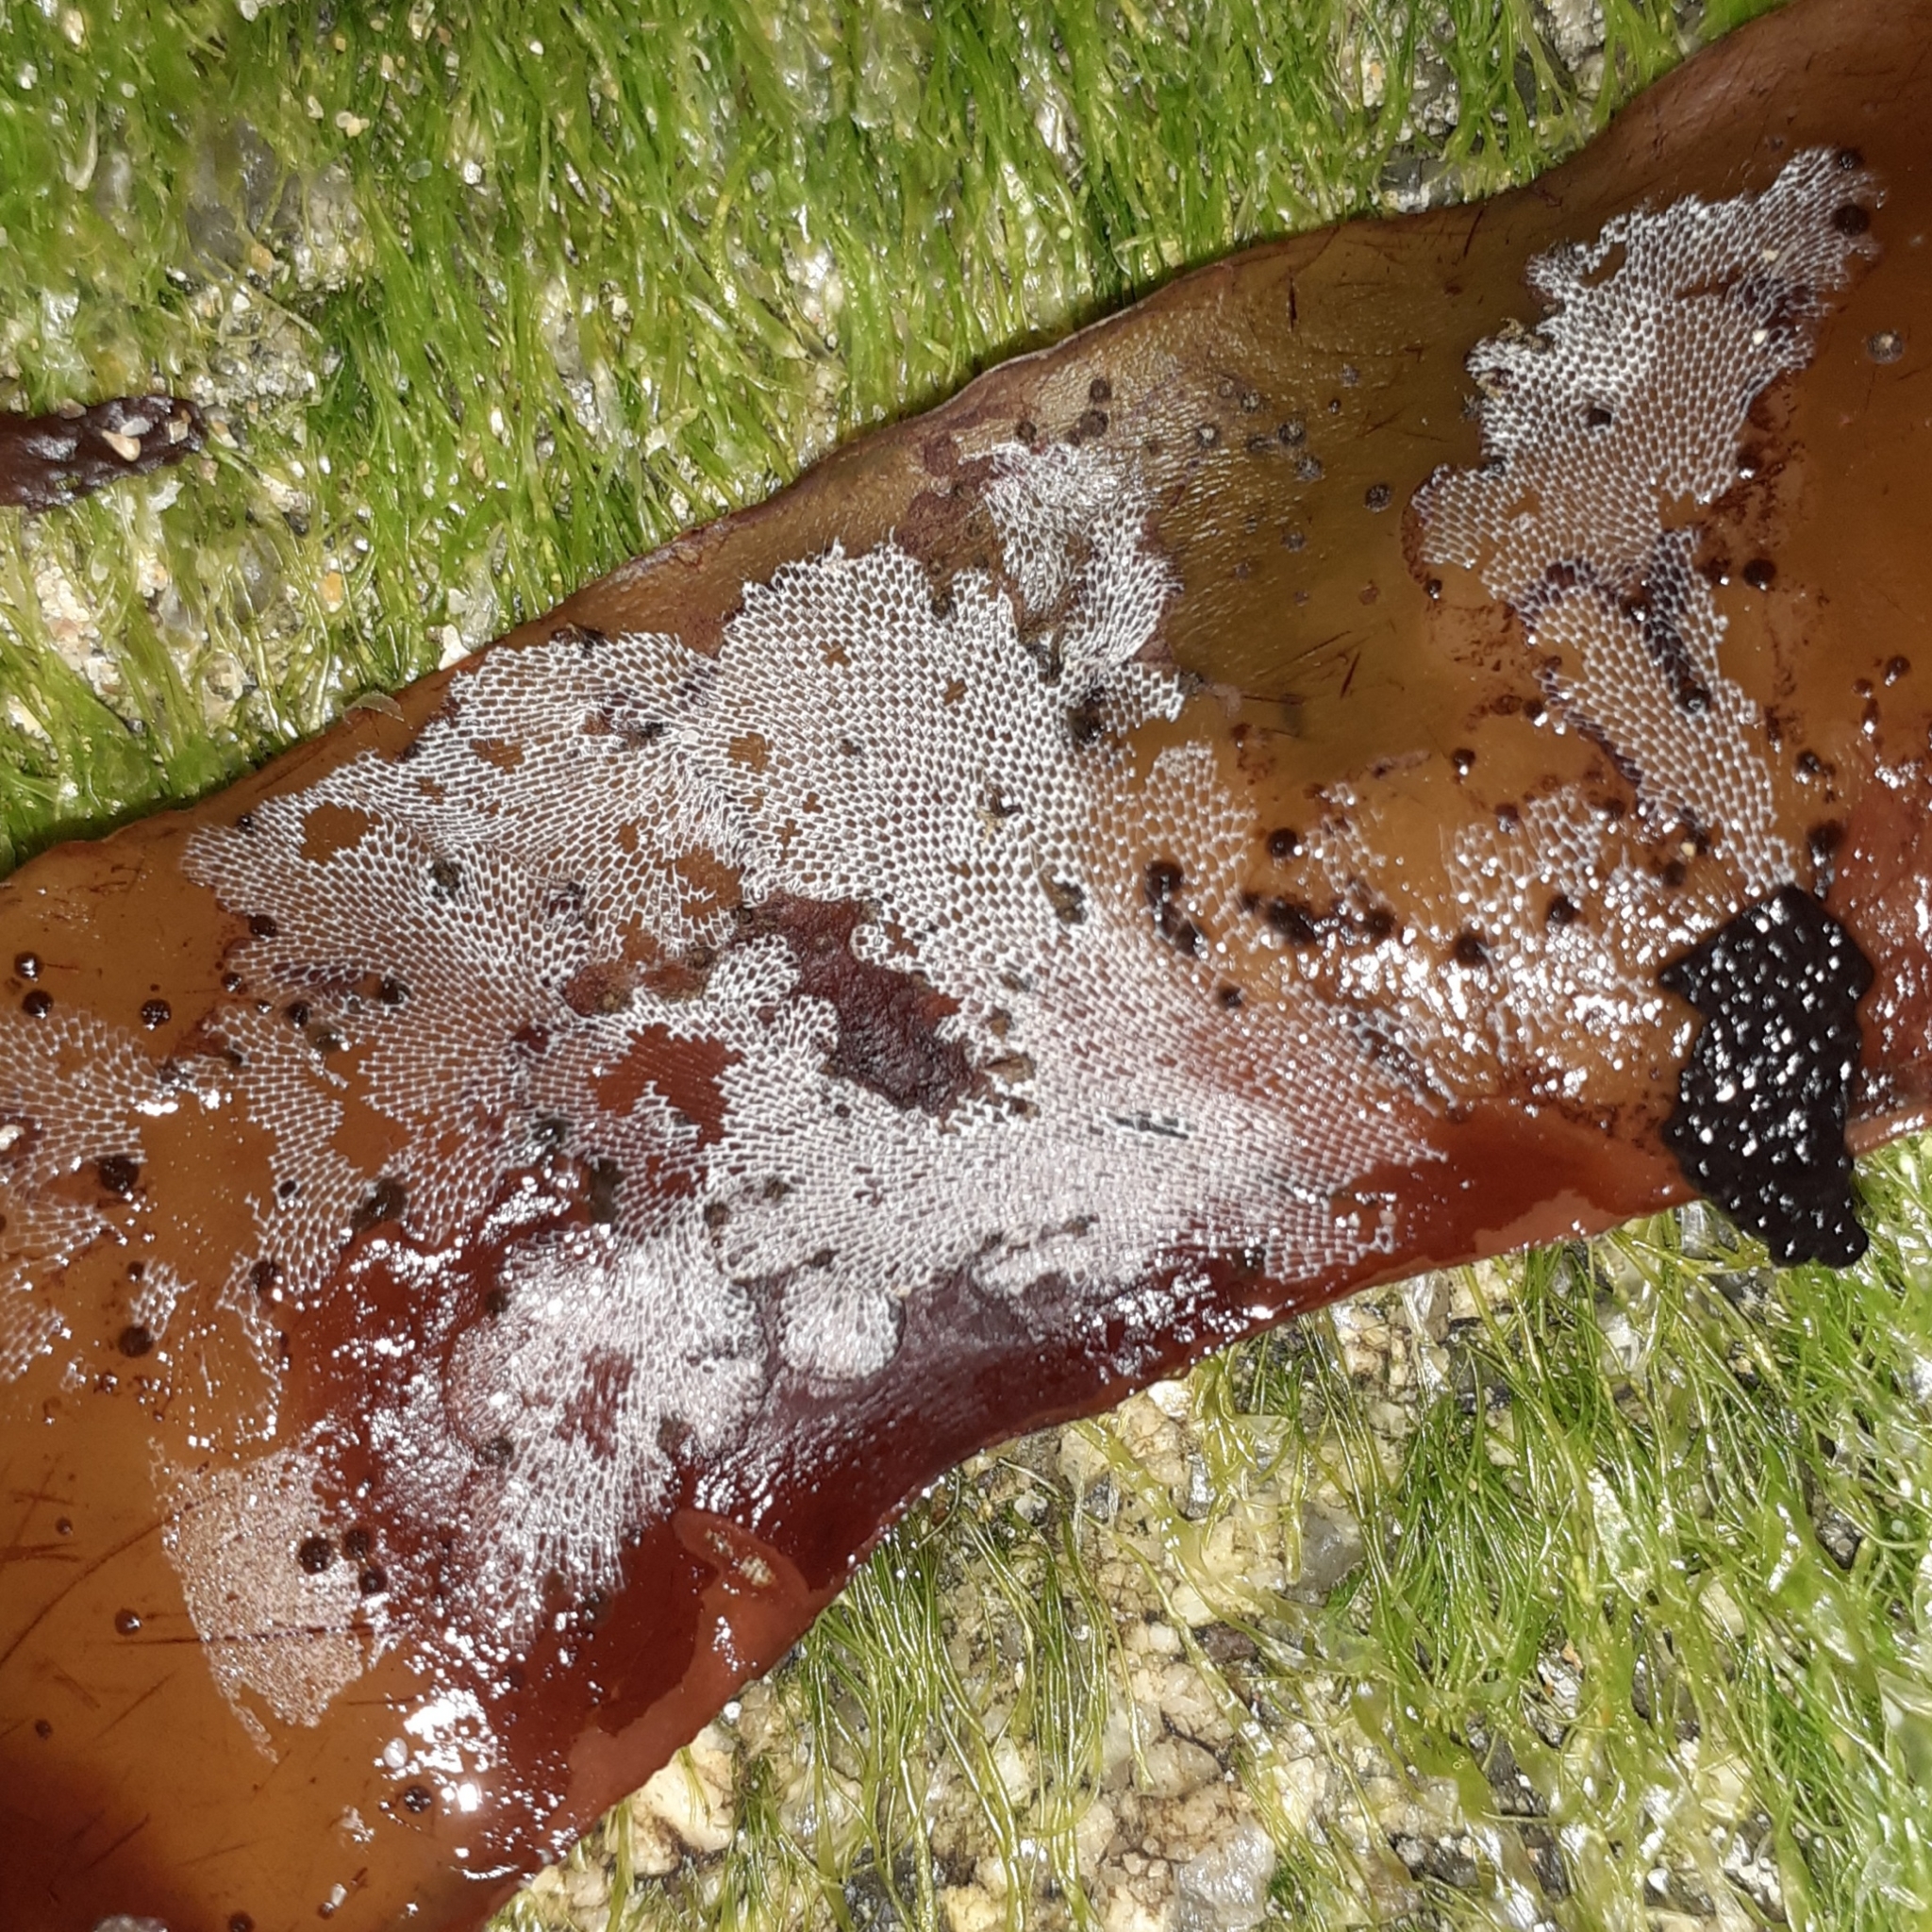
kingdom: Animalia
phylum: Bryozoa
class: Gymnolaemata
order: Cheilostomatida
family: Membraniporidae
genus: Membranipora
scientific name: Membranipora membranacea
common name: Sea mat
